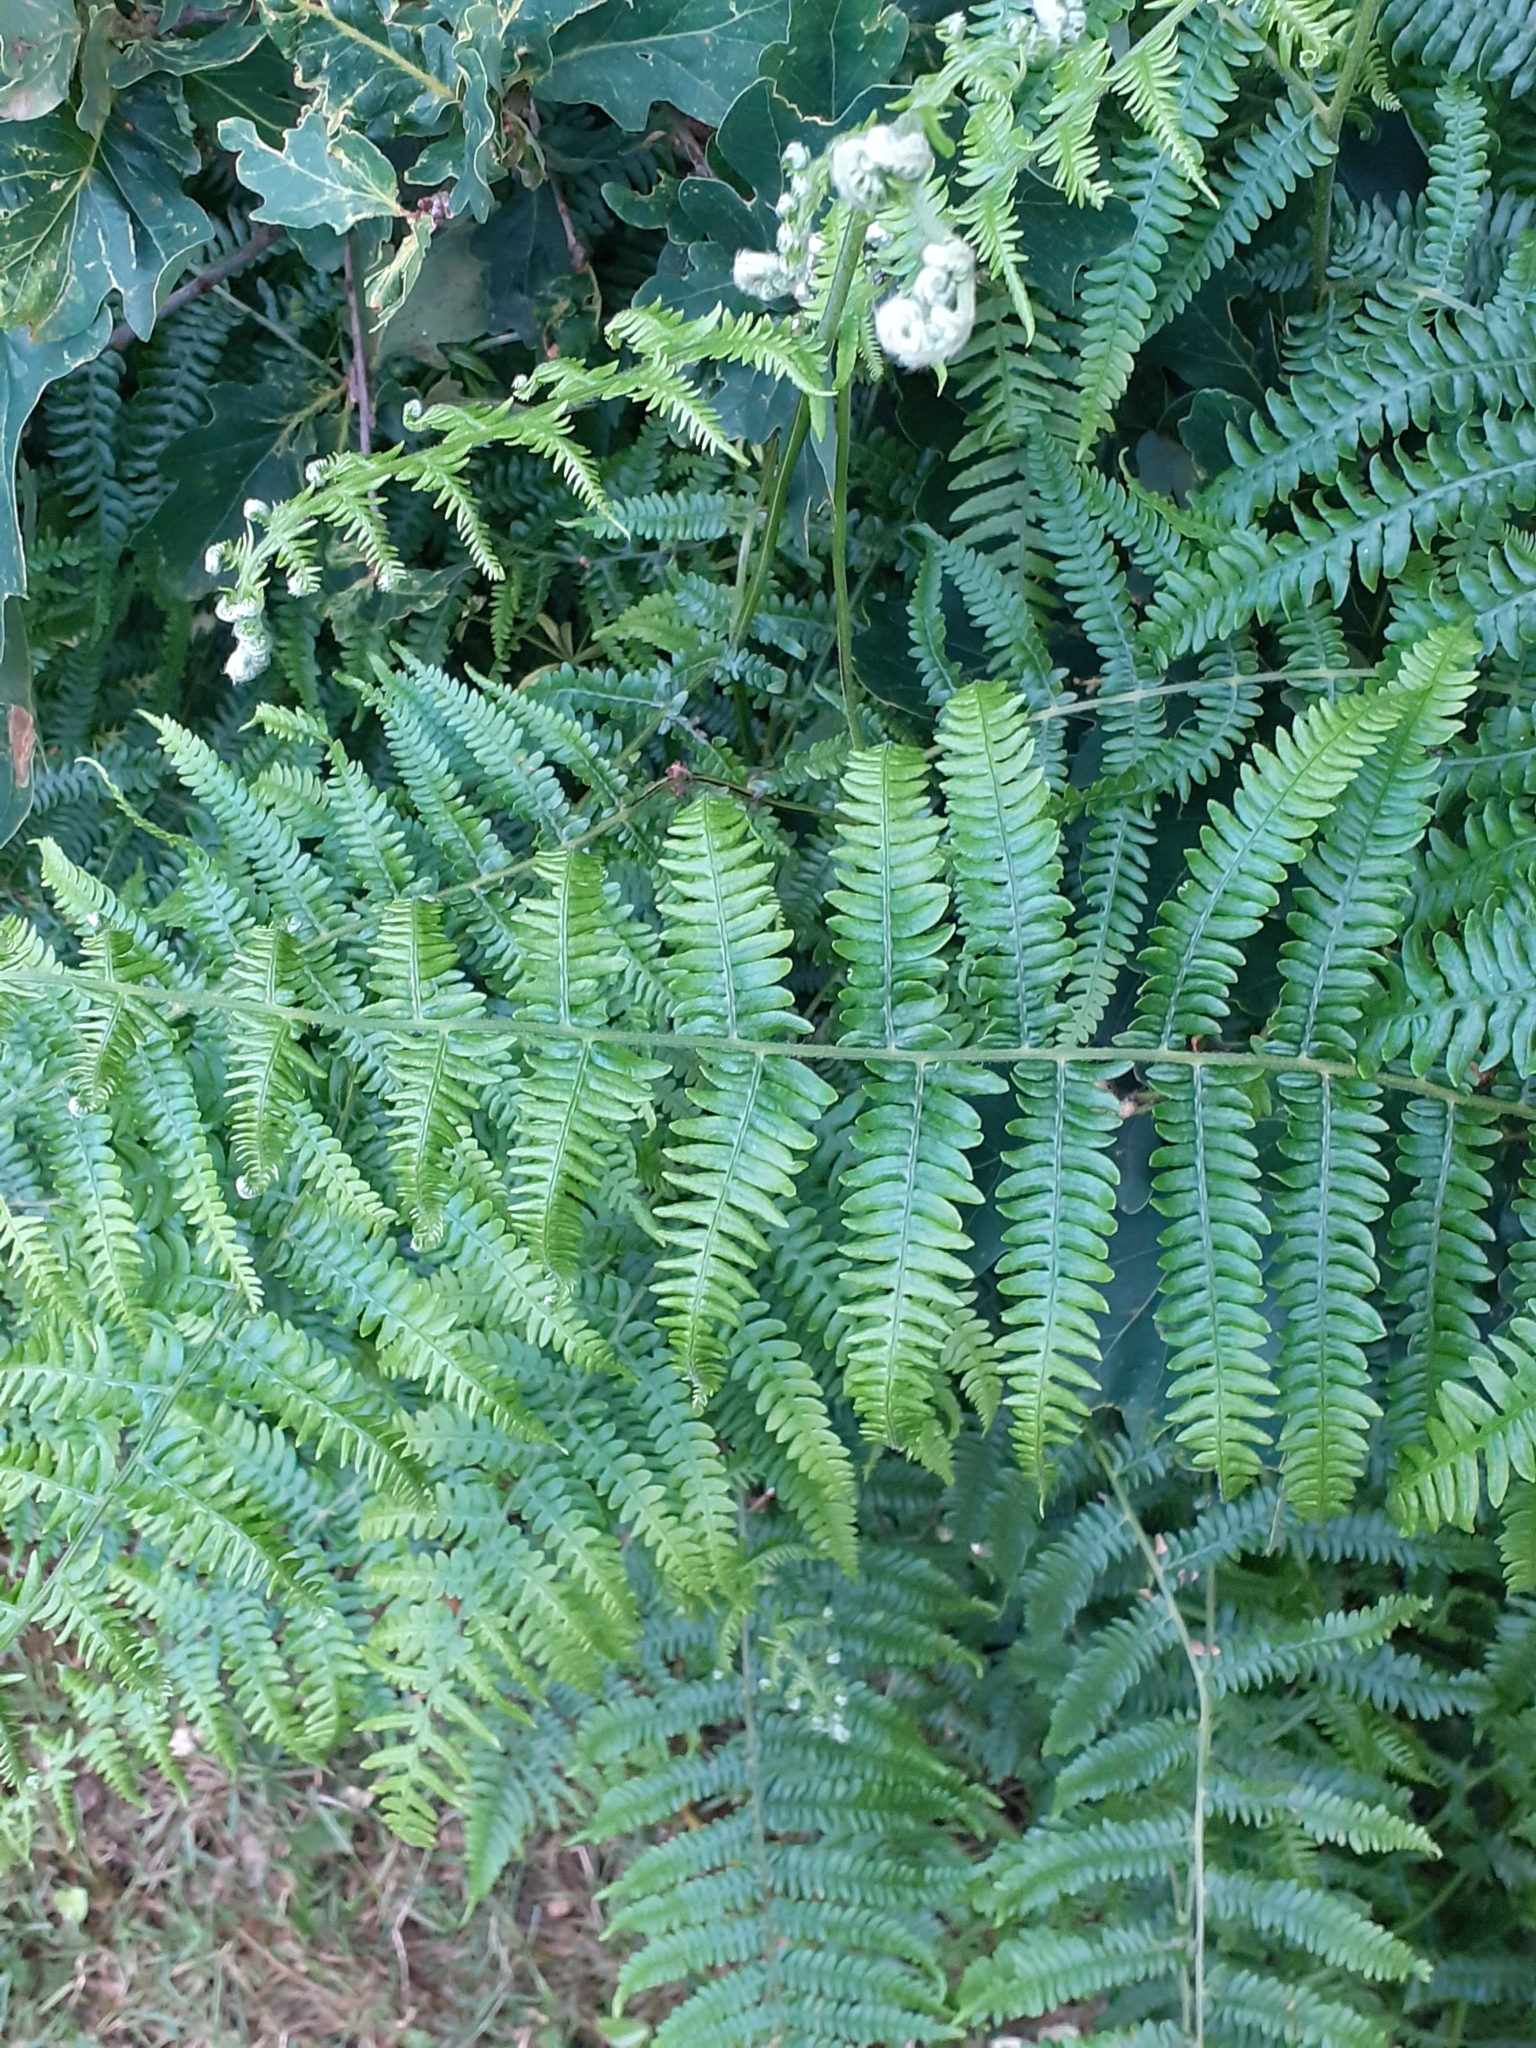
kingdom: Plantae
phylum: Tracheophyta
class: Polypodiopsida
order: Polypodiales
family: Dennstaedtiaceae
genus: Pteridium
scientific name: Pteridium aquilinum
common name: Bracken
